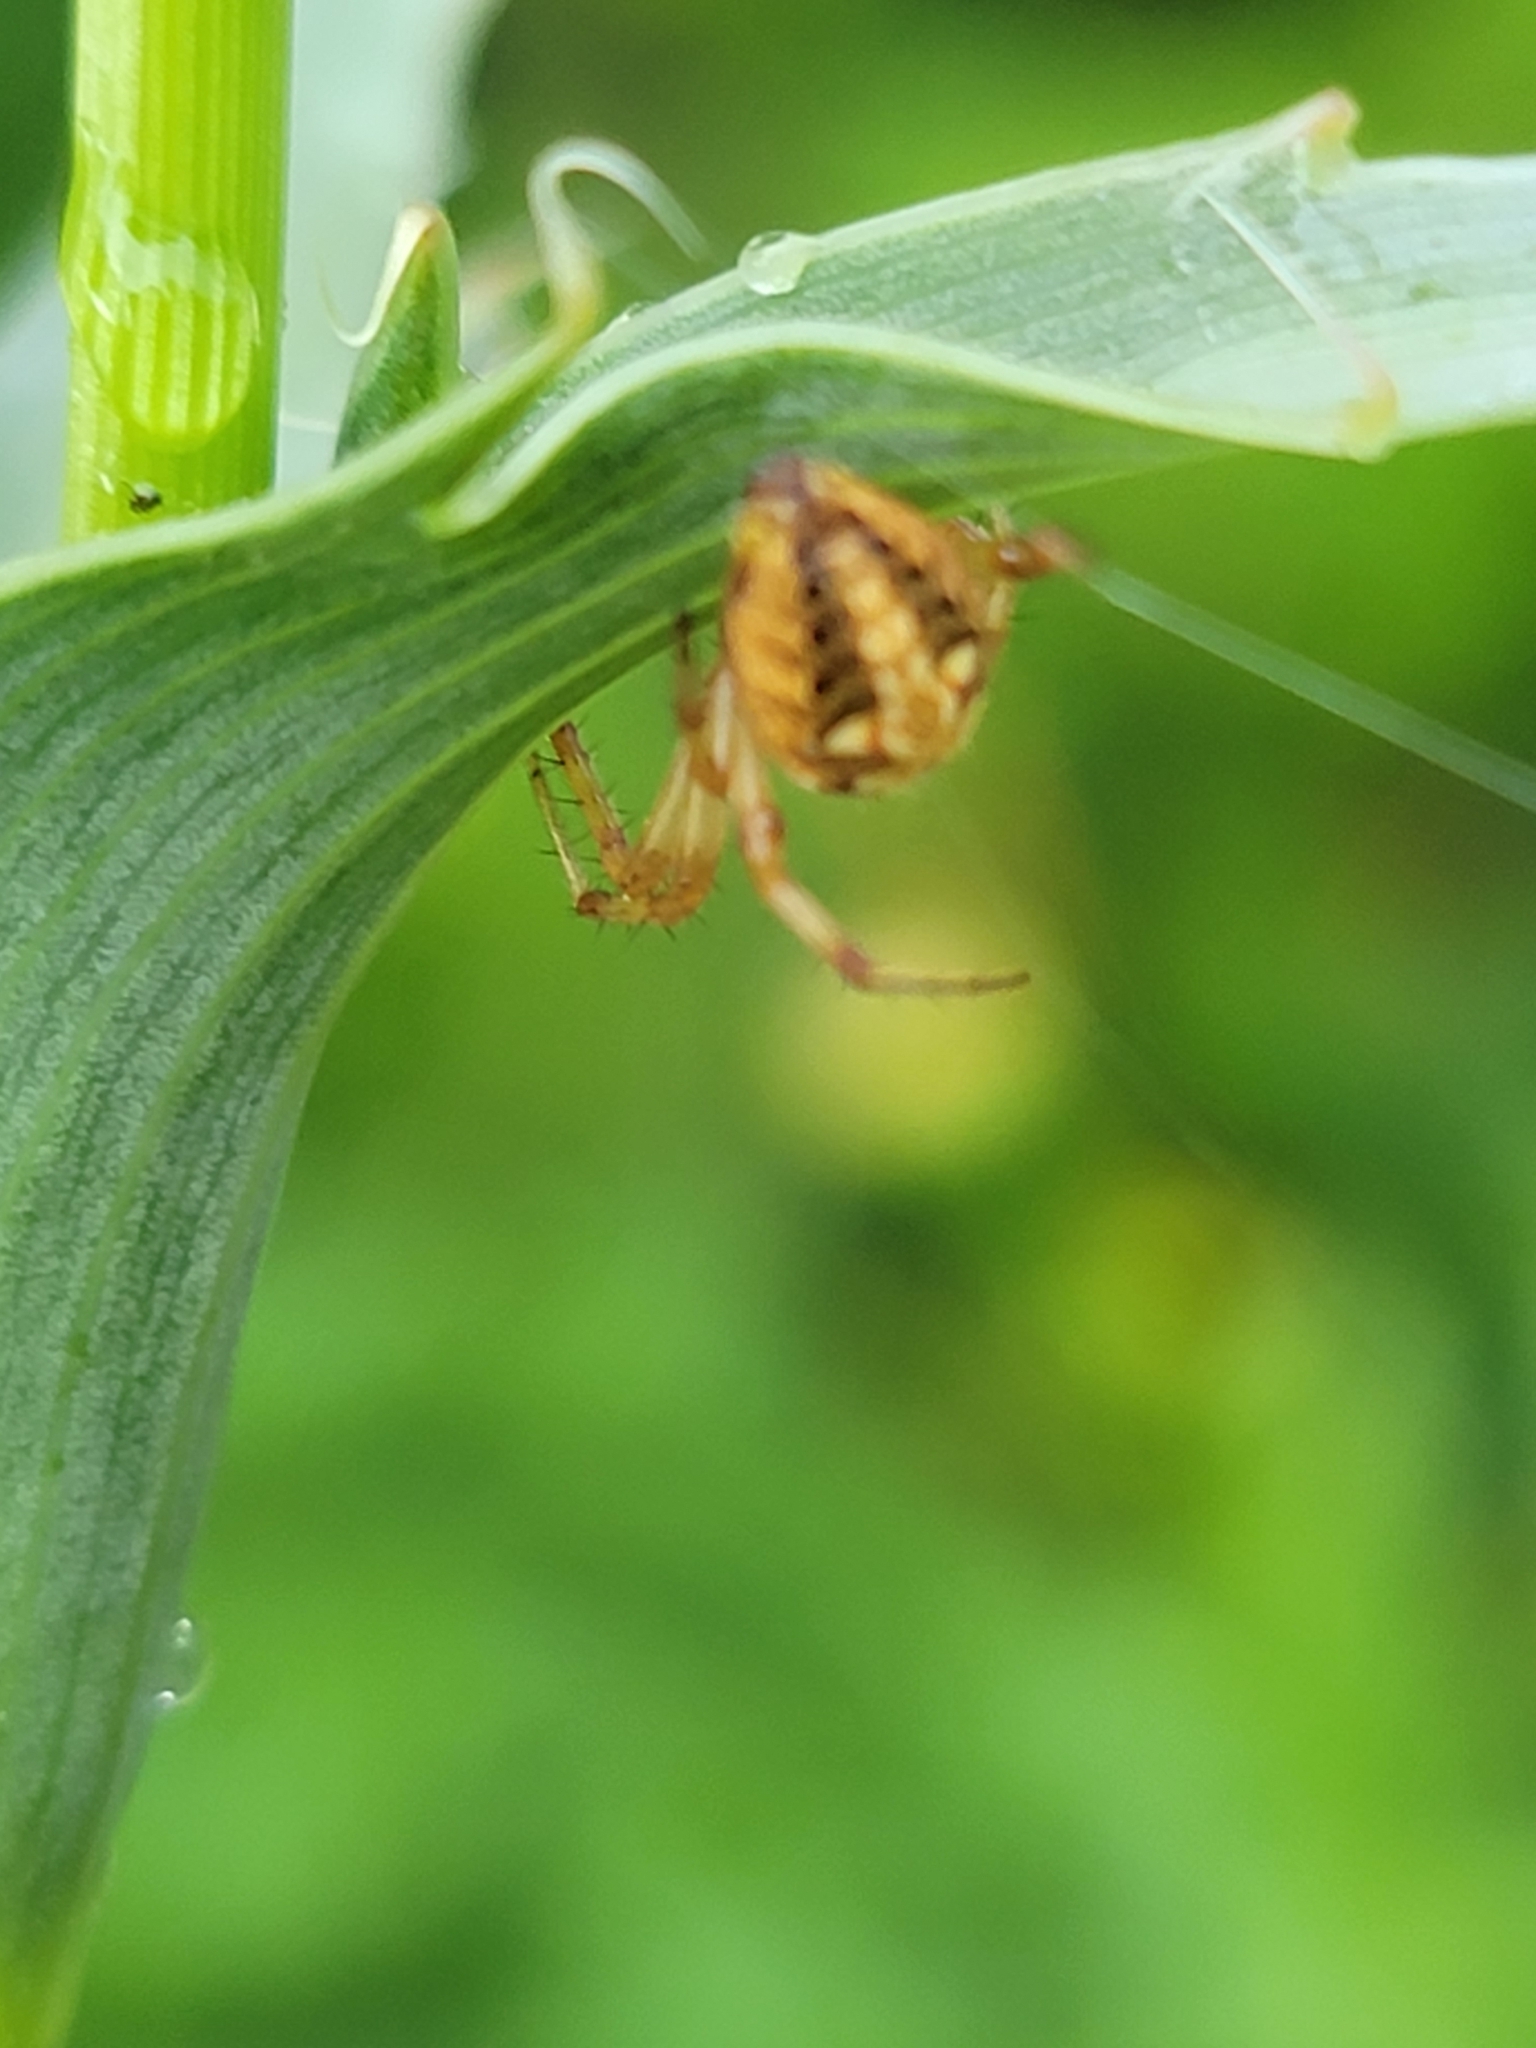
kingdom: Animalia
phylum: Arthropoda
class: Arachnida
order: Araneae
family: Araneidae
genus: Neoscona
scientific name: Neoscona arabesca
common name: Orb weavers
